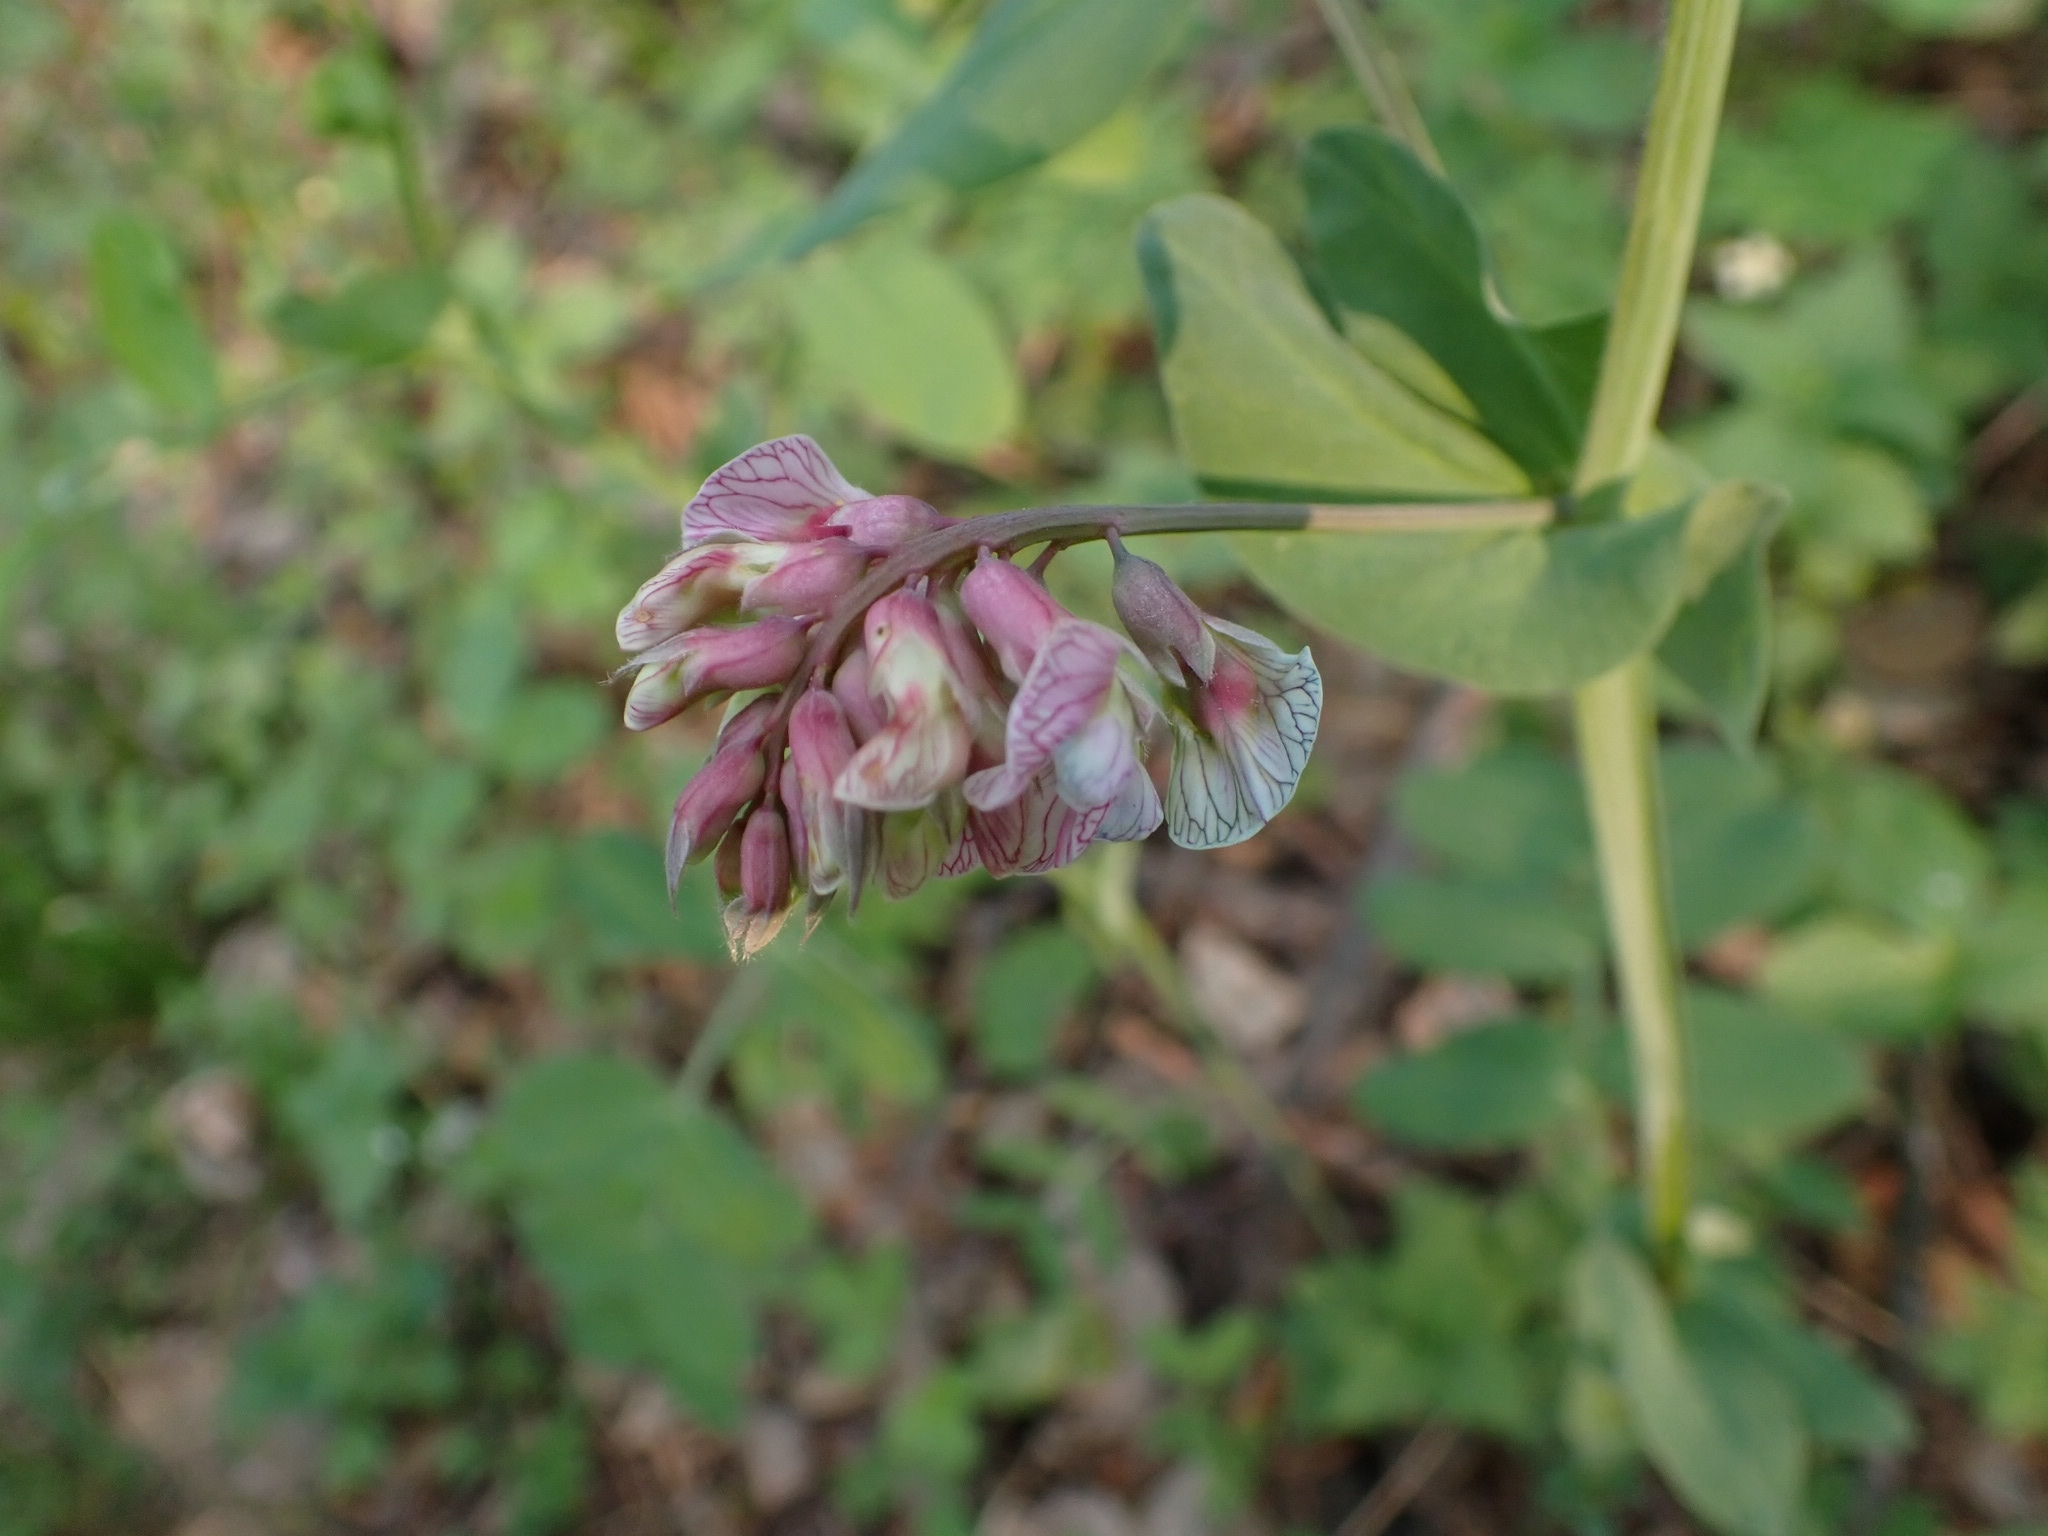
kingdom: Plantae
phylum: Tracheophyta
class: Magnoliopsida
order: Fabales
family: Fabaceae
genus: Lathyrus
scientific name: Lathyrus pisiformis
